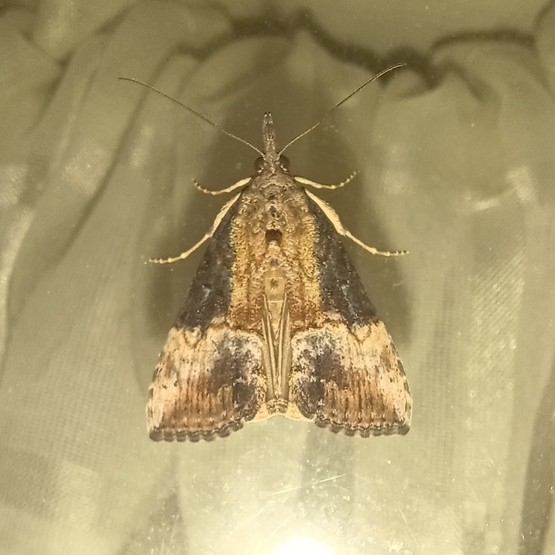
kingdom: Animalia
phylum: Arthropoda
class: Insecta
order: Lepidoptera
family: Erebidae
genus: Hypena
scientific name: Hypena scabra
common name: Green cloverworm
